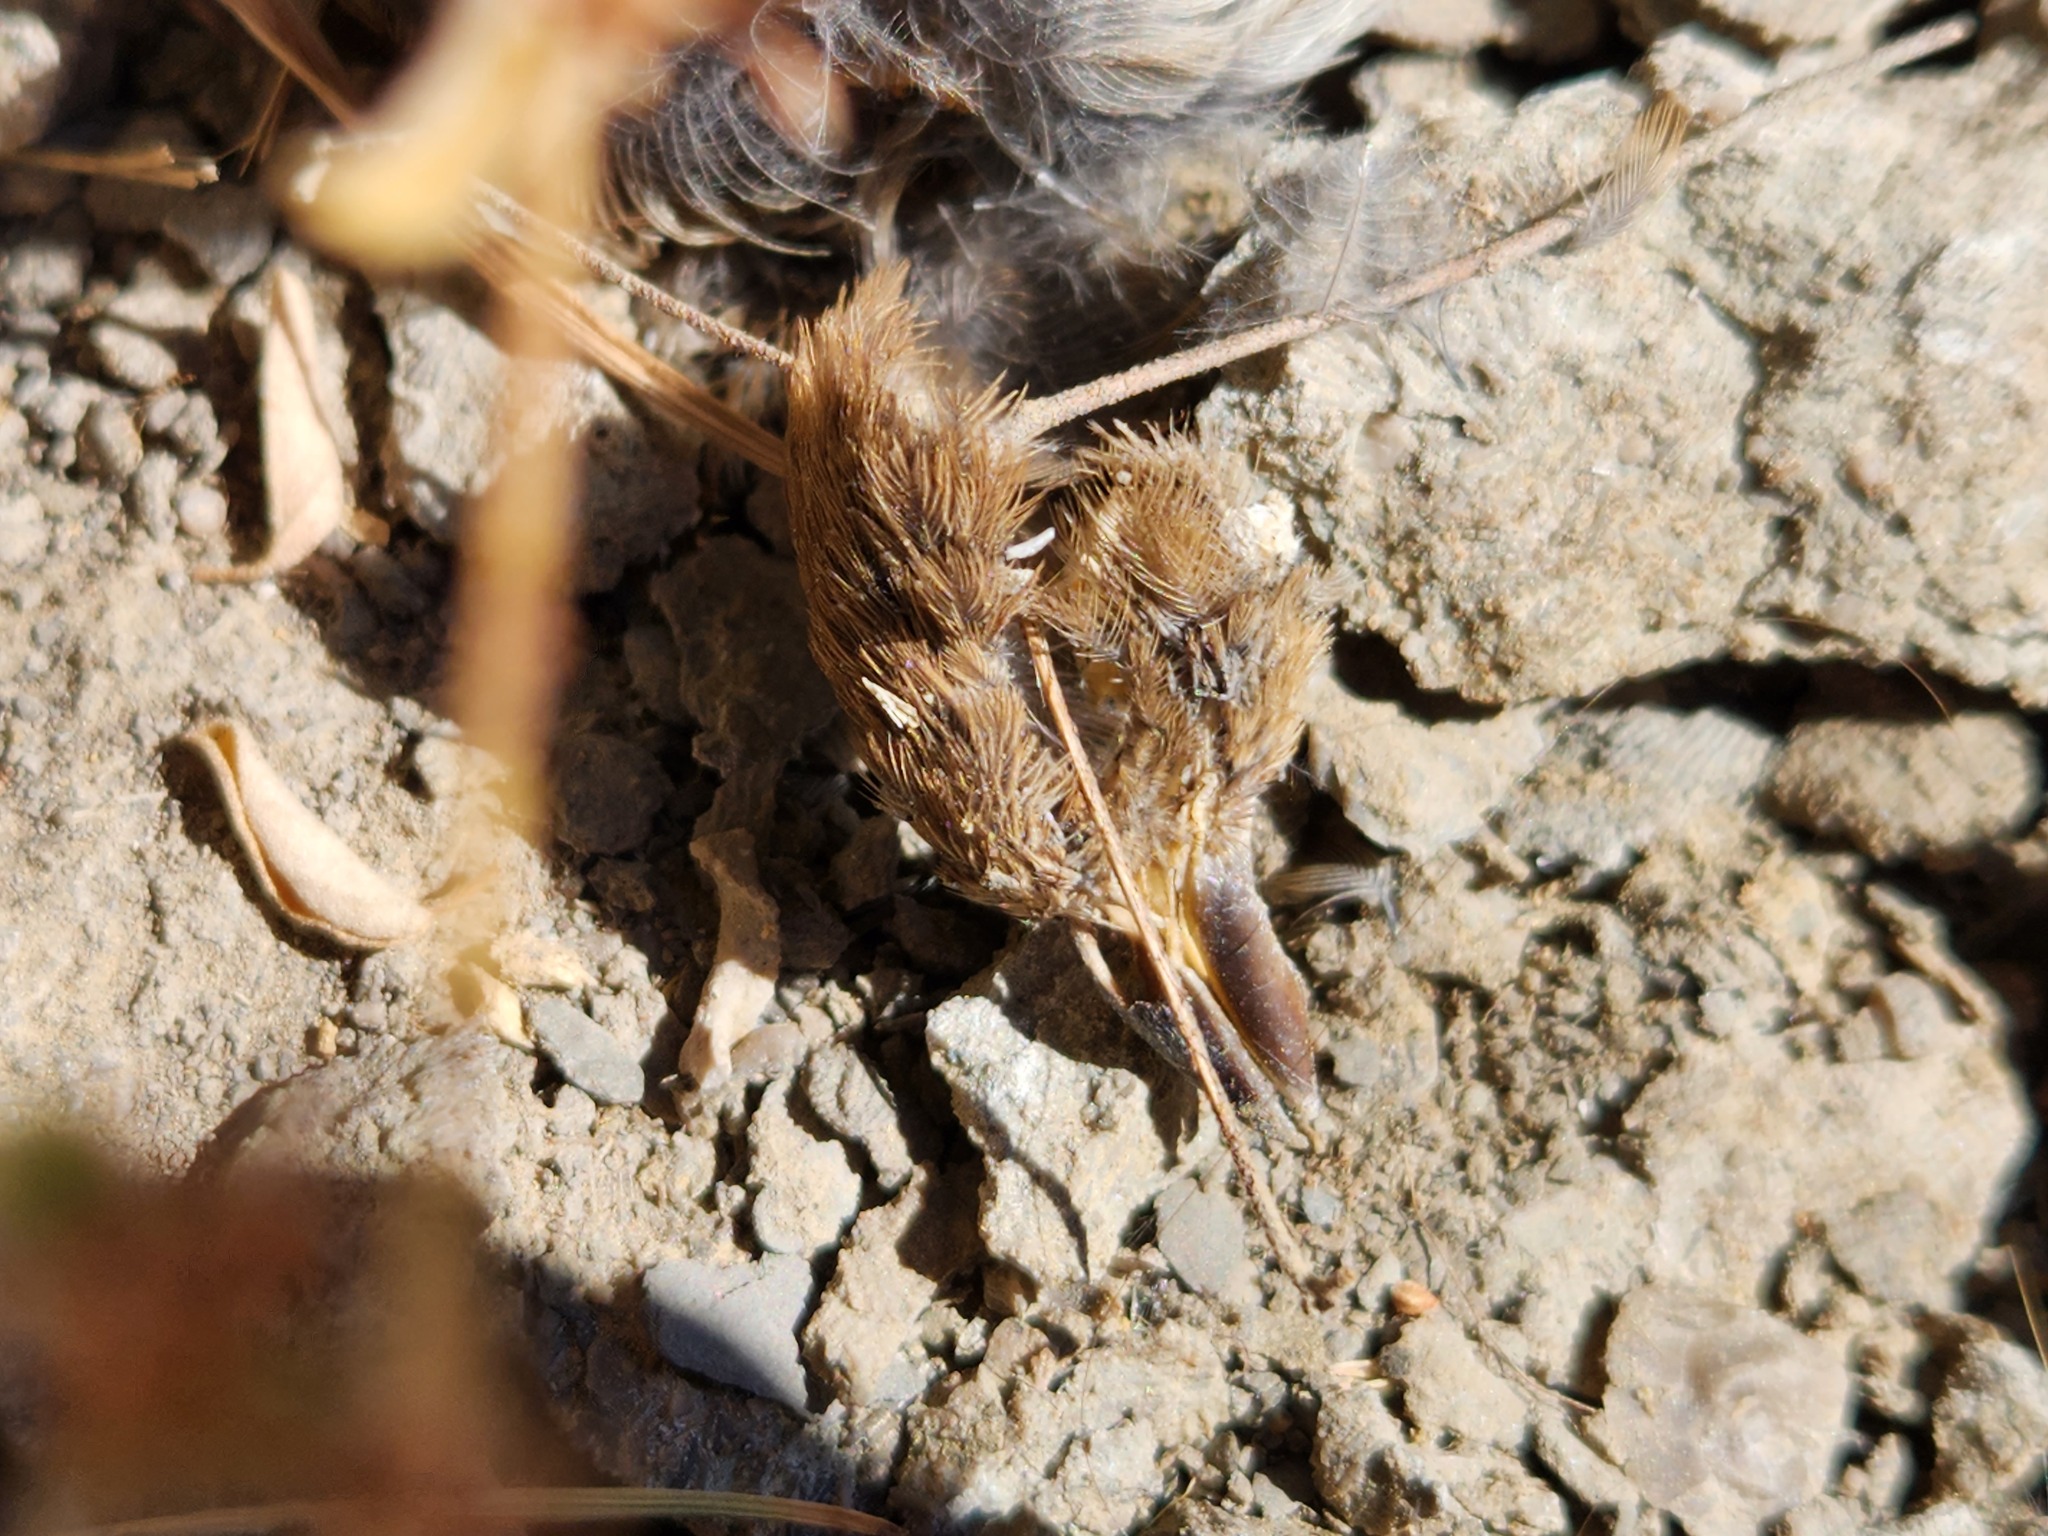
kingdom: Animalia
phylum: Chordata
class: Aves
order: Passeriformes
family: Passeridae
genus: Passer
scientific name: Passer domesticus
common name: House sparrow
